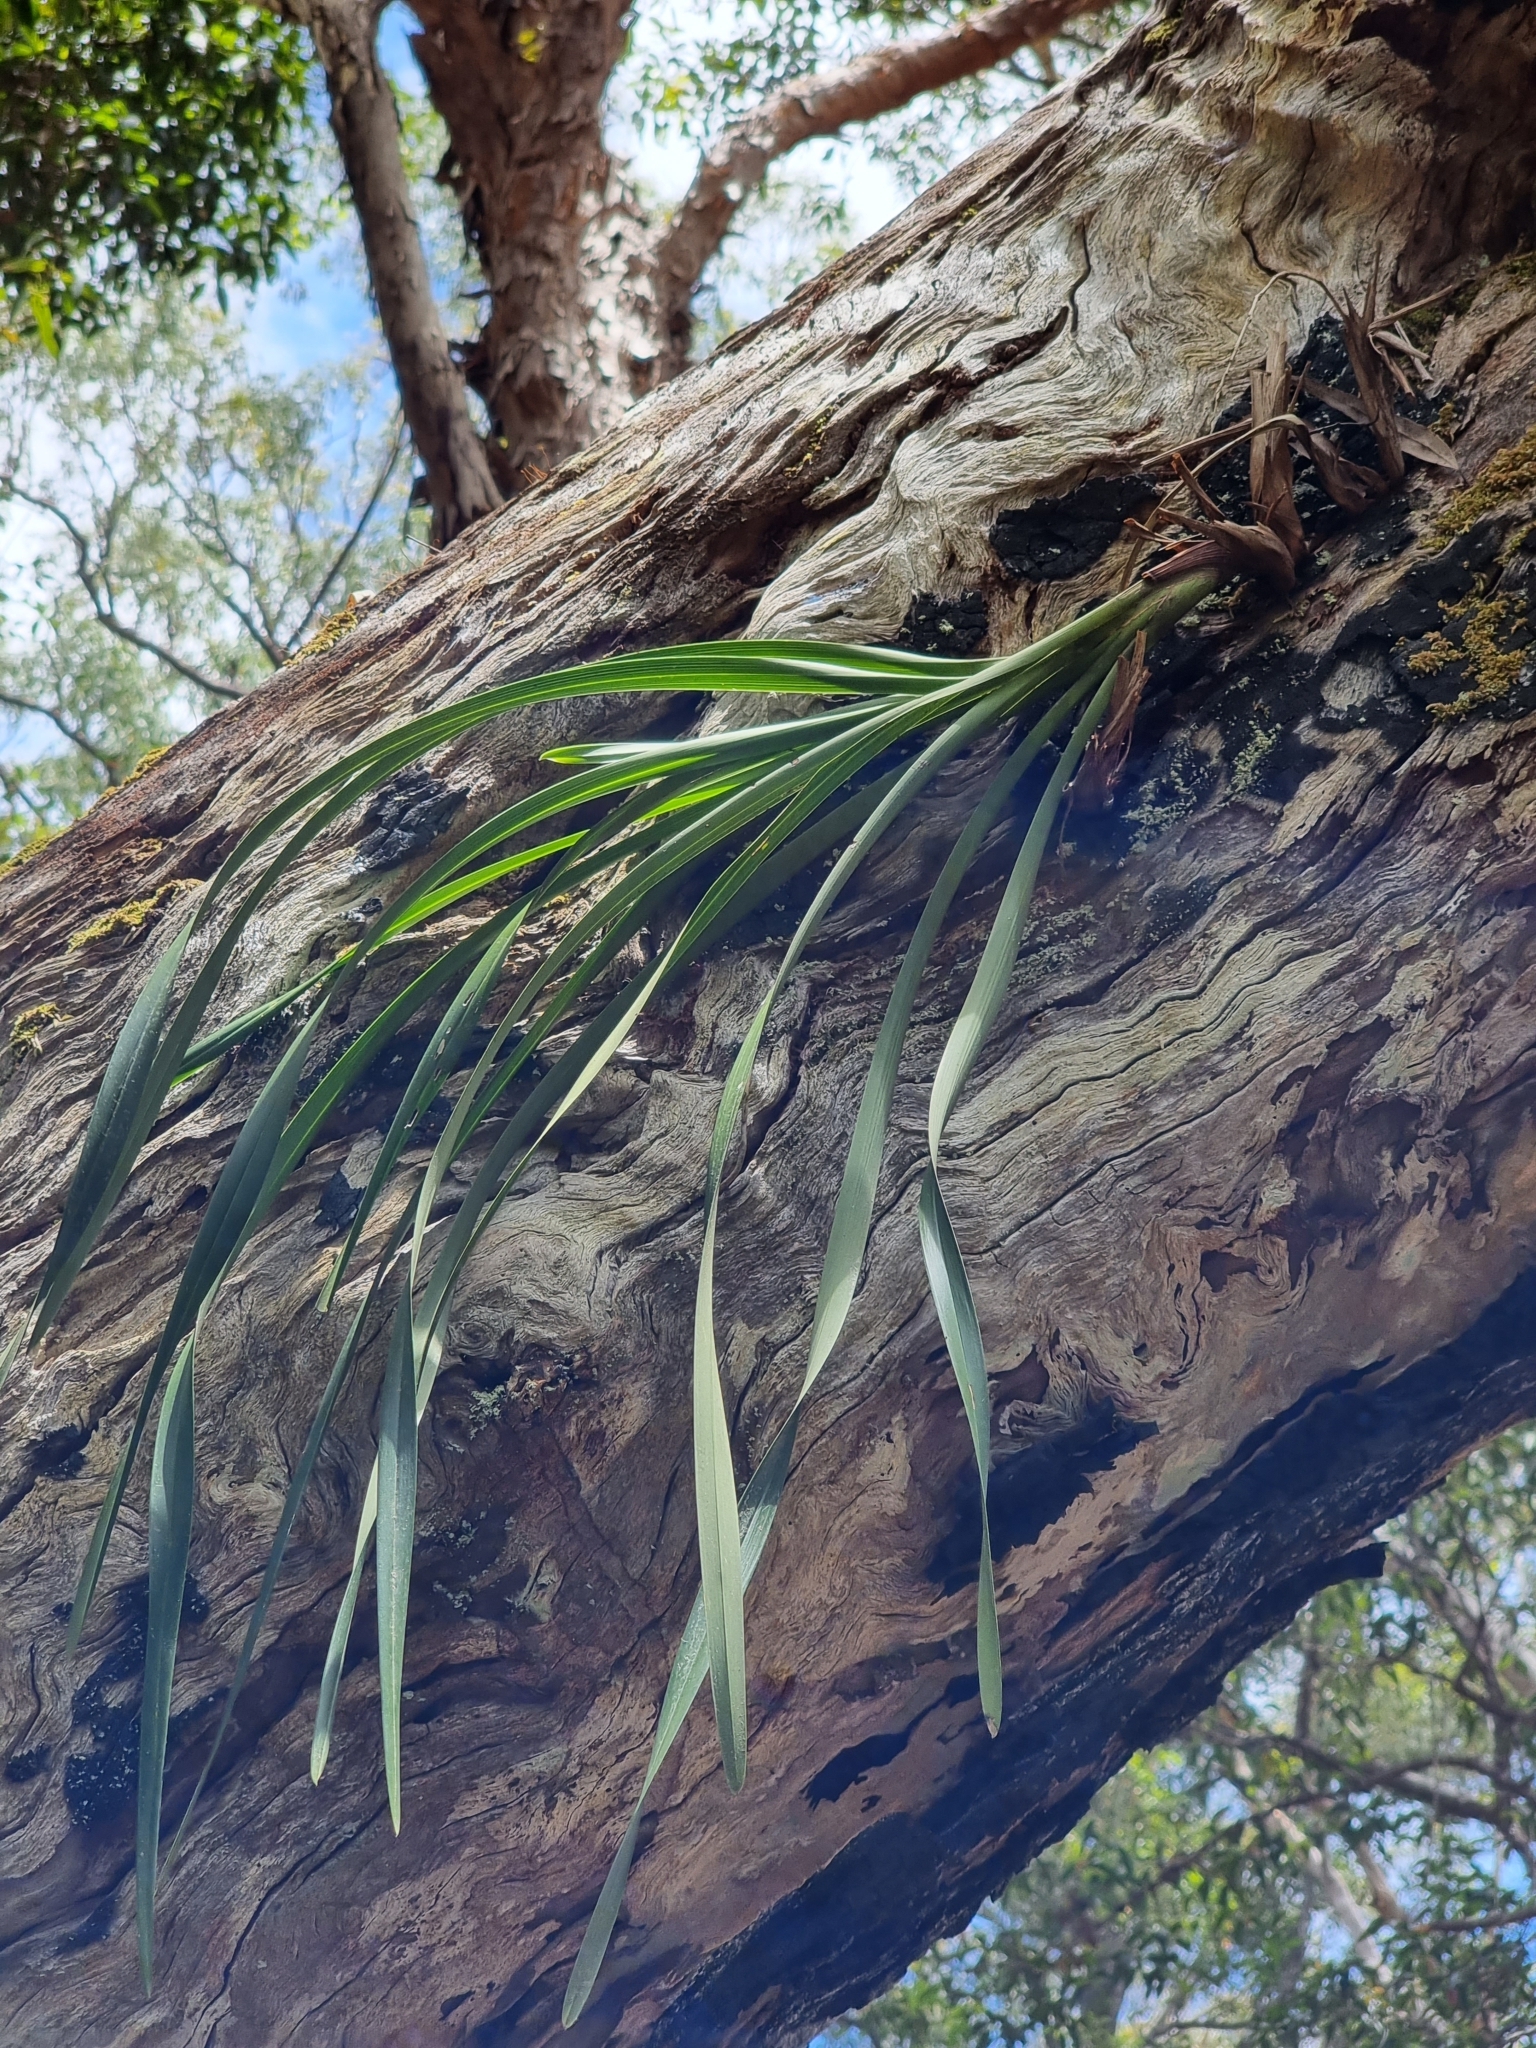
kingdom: Plantae
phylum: Tracheophyta
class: Liliopsida
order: Asparagales
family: Orchidaceae
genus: Cymbidium
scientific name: Cymbidium suave
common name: Snake orchid
